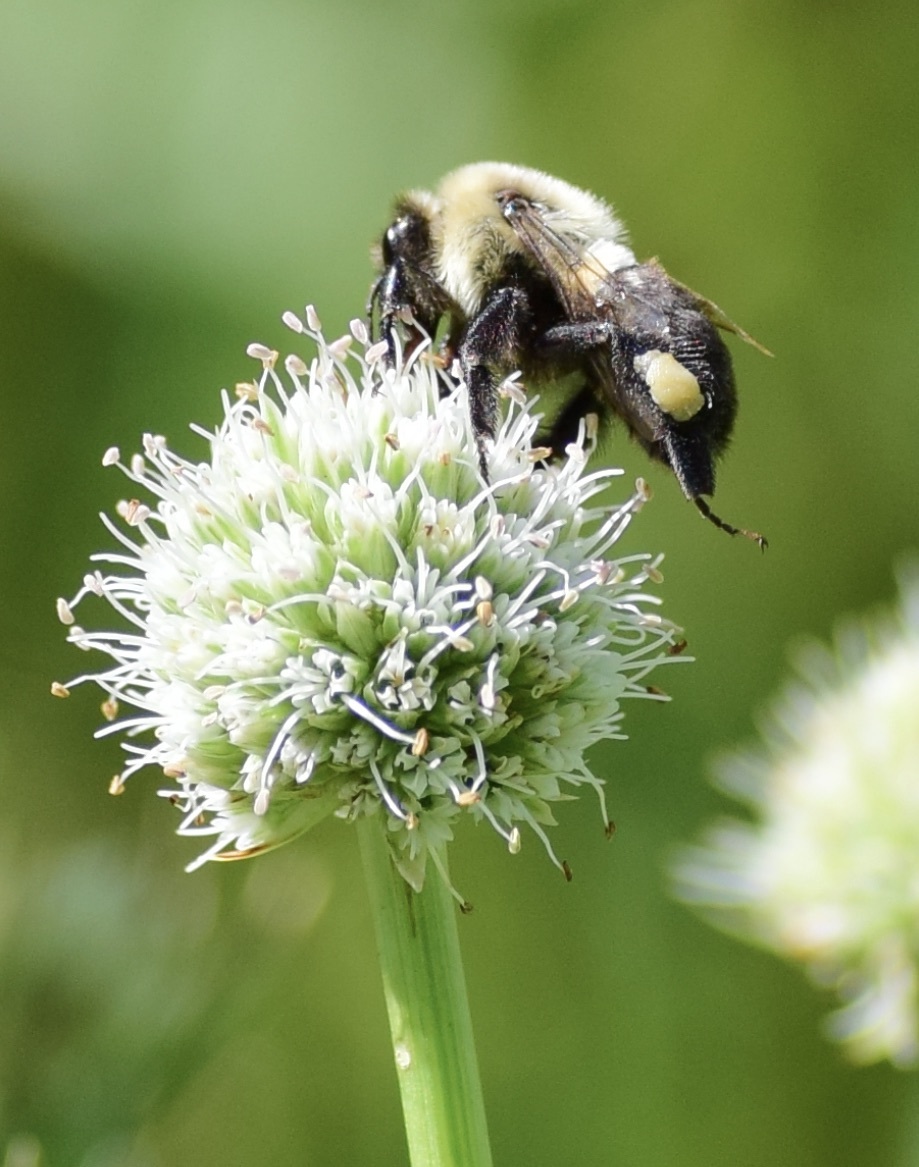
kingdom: Animalia
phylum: Arthropoda
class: Insecta
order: Hymenoptera
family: Apidae
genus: Bombus
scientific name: Bombus impatiens
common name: Common eastern bumble bee
